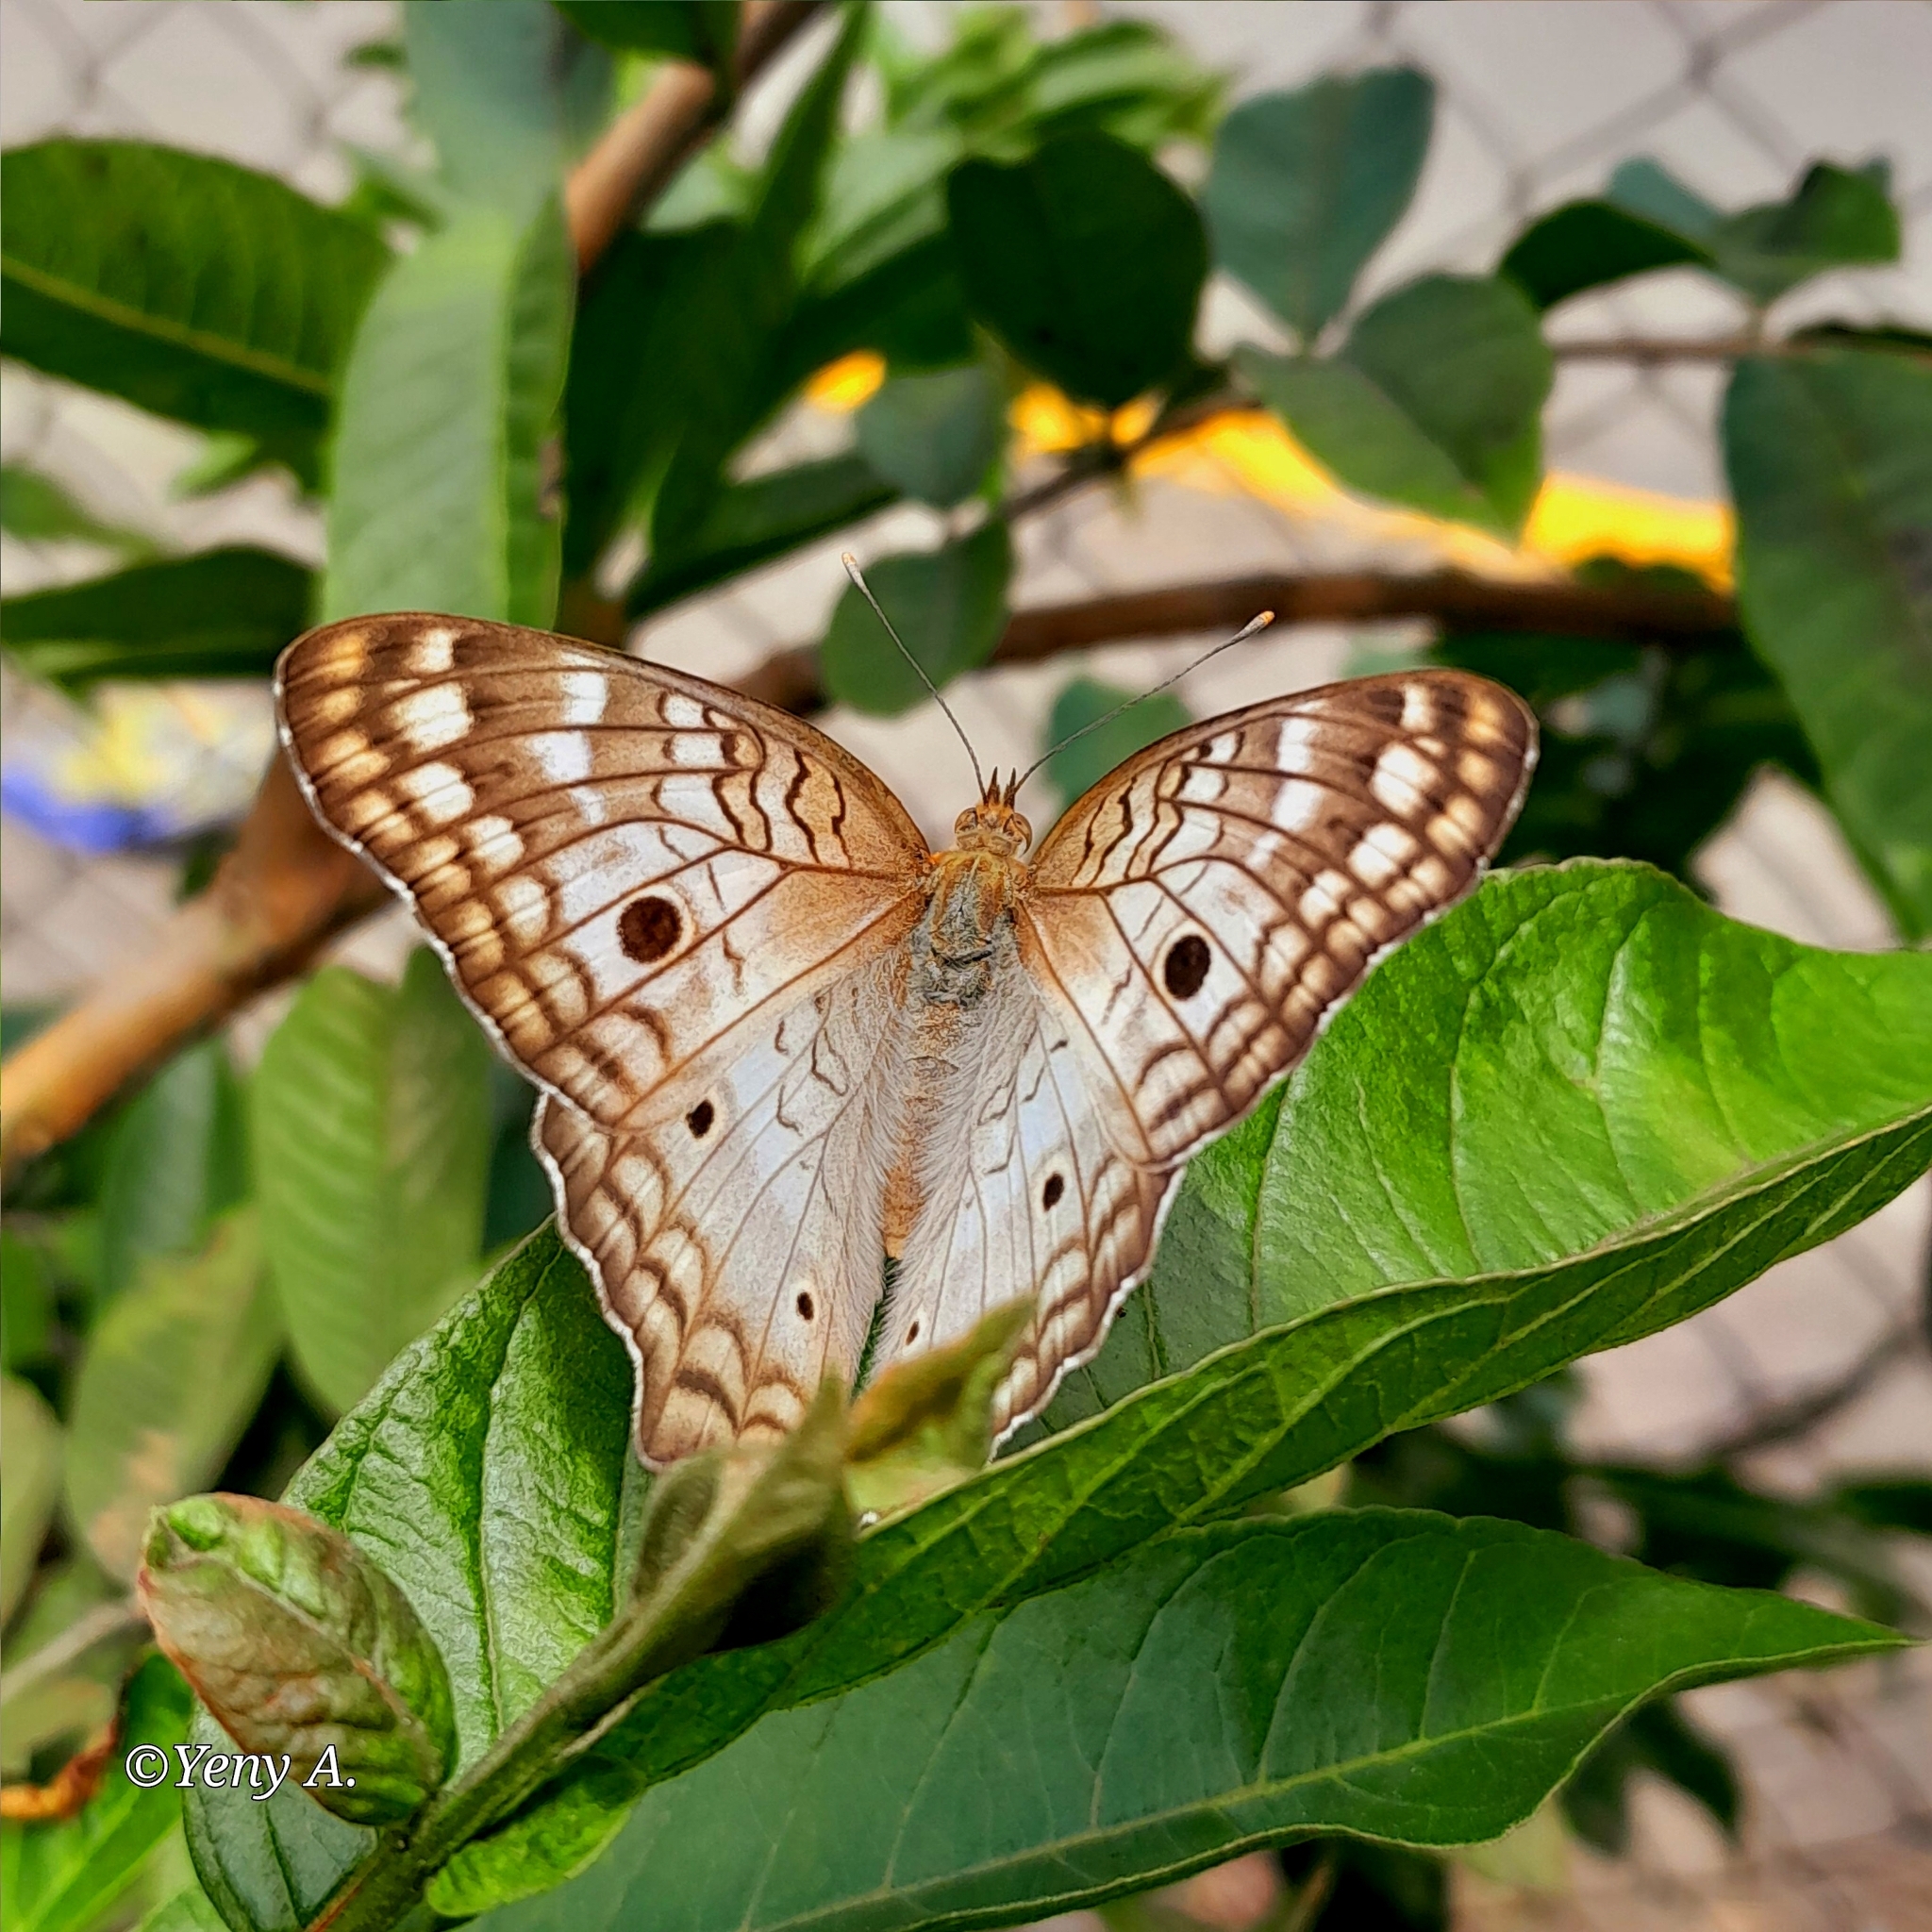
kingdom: Animalia
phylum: Arthropoda
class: Insecta
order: Lepidoptera
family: Nymphalidae
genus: Anartia
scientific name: Anartia jatrophae
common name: White peacock
